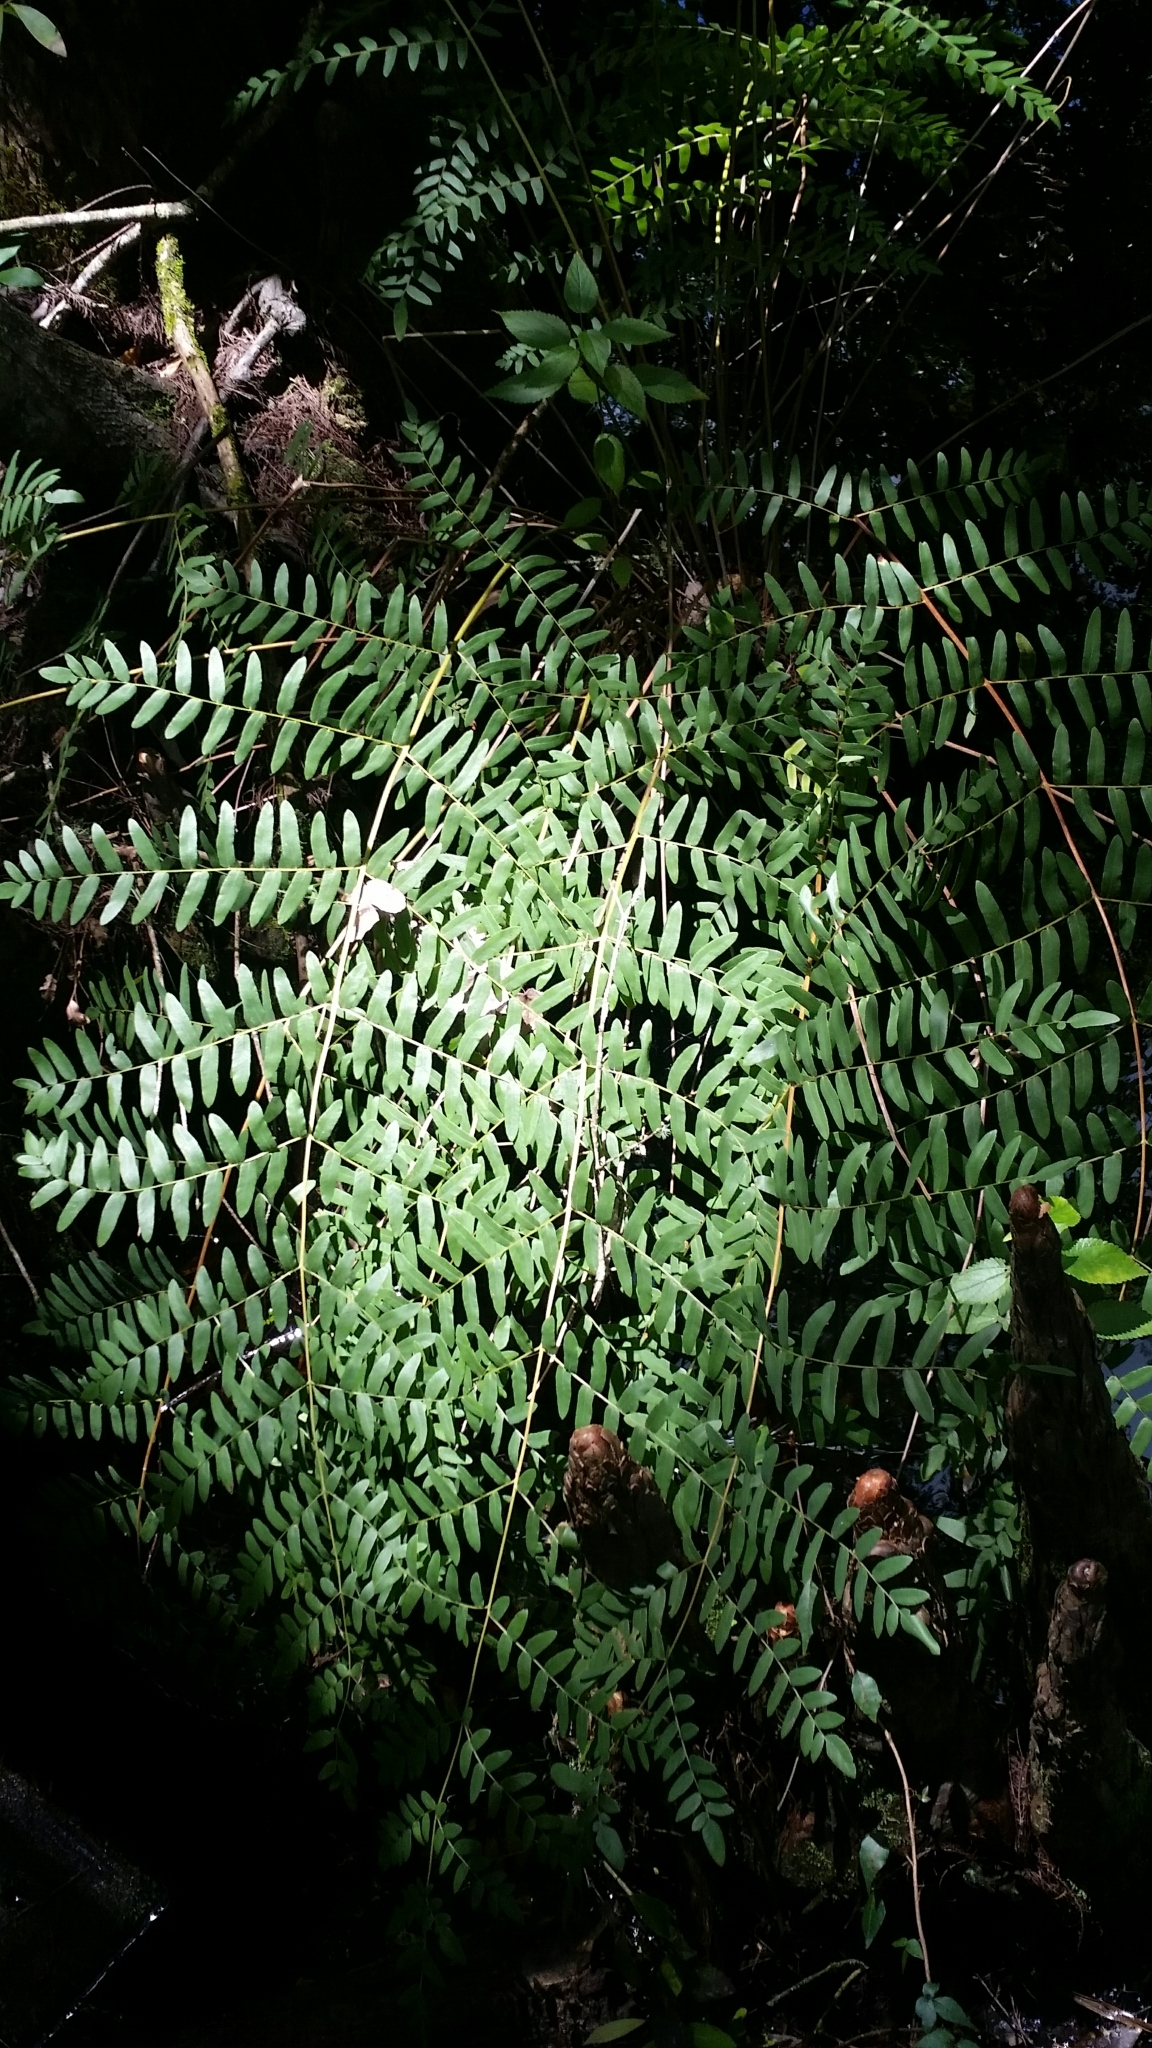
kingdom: Plantae
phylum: Tracheophyta
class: Polypodiopsida
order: Osmundales
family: Osmundaceae
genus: Osmunda
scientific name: Osmunda spectabilis
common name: American royal fern
